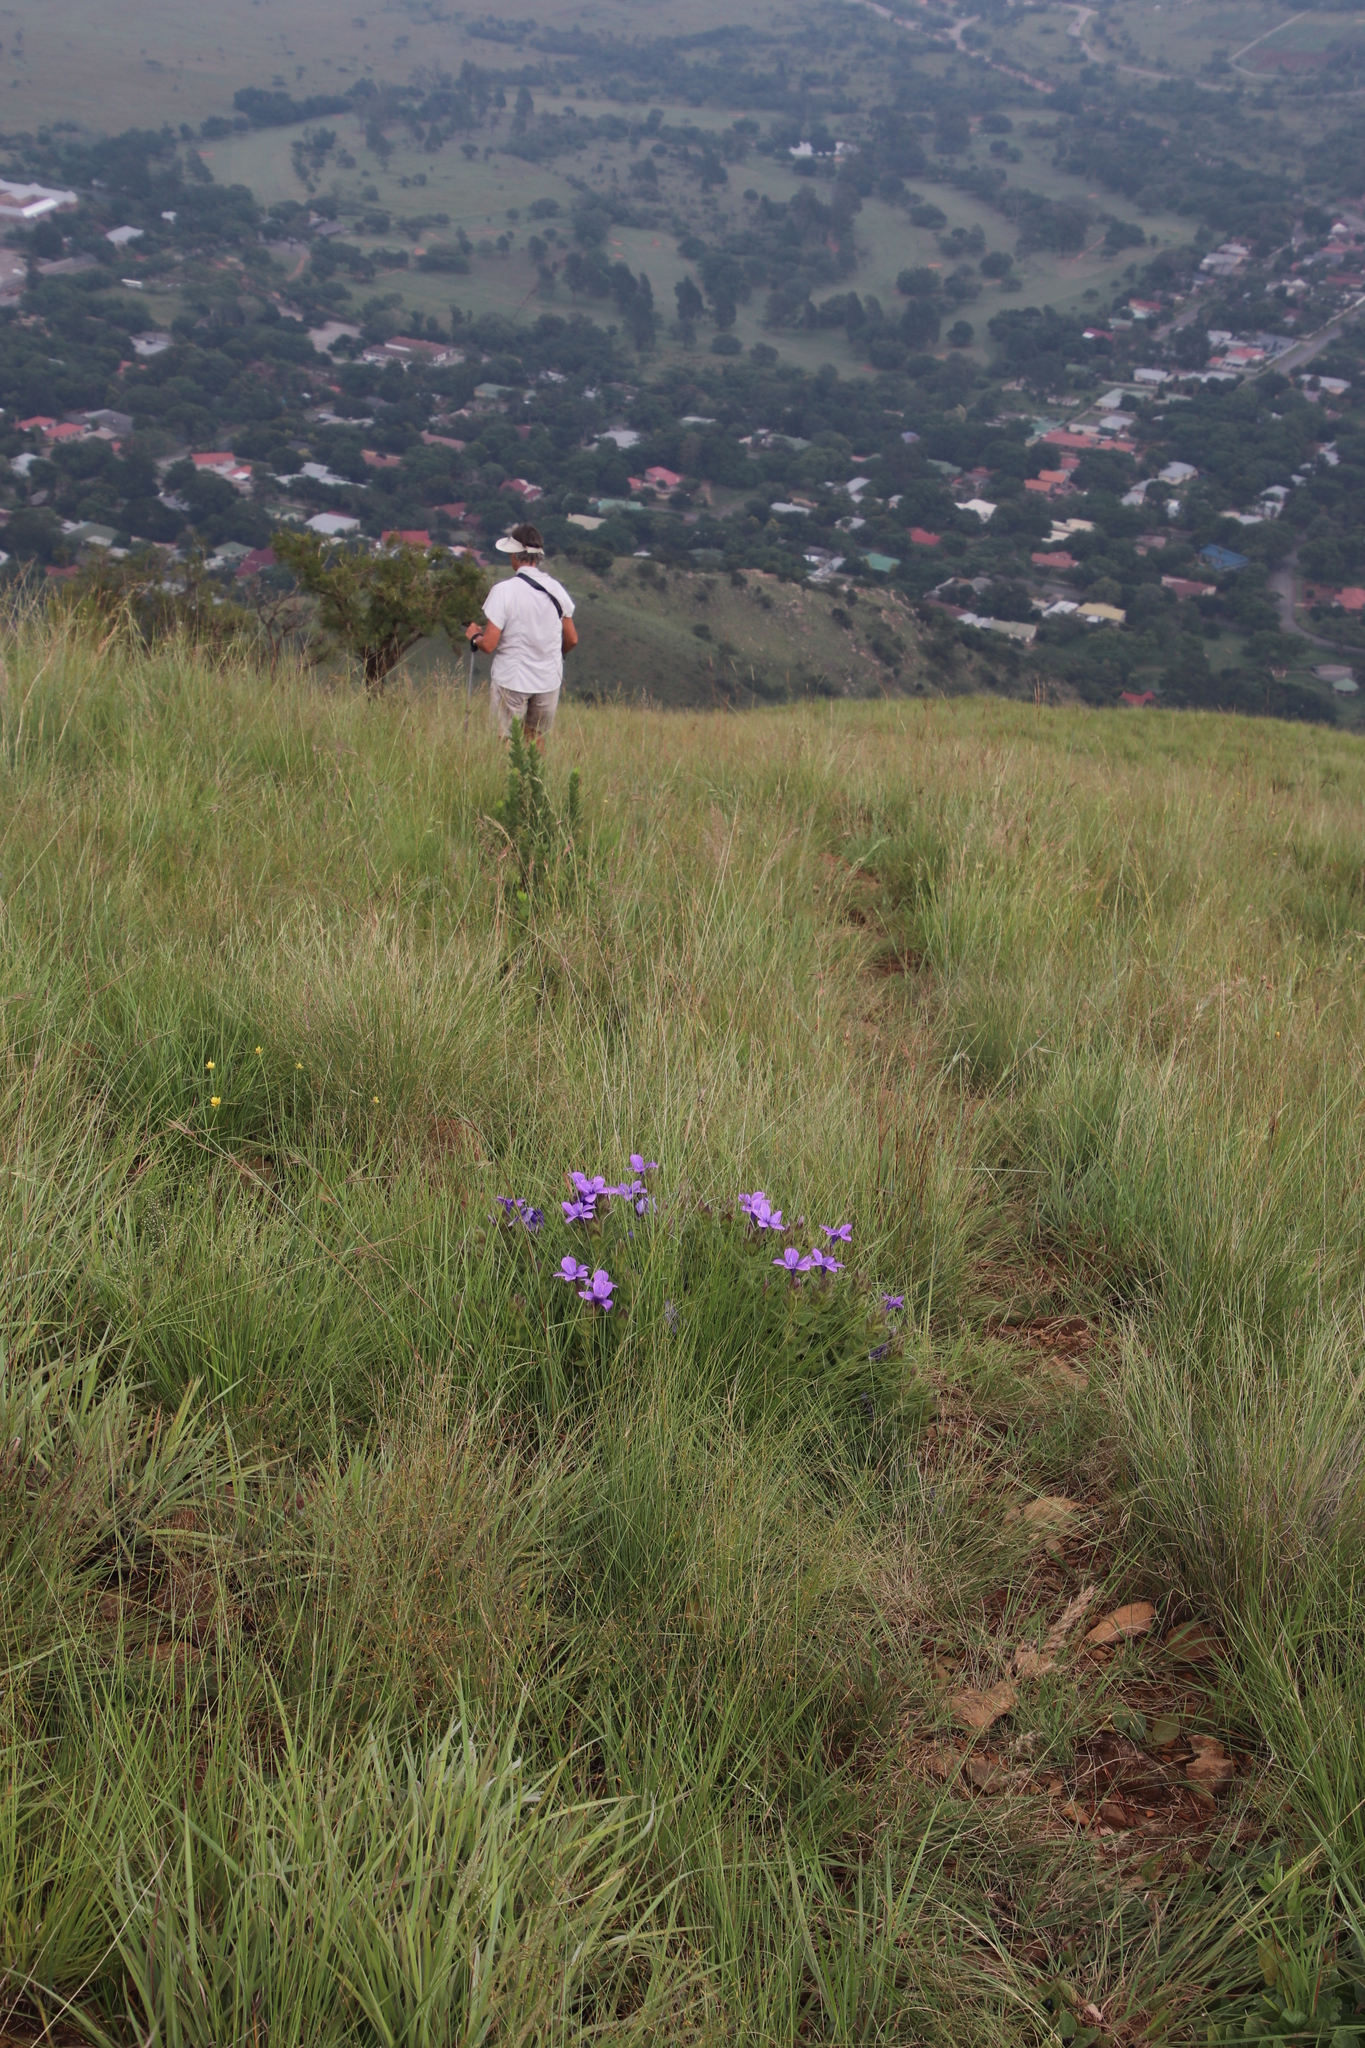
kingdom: Plantae
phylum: Tracheophyta
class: Magnoliopsida
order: Lamiales
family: Acanthaceae
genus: Barleria
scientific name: Barleria ovata
